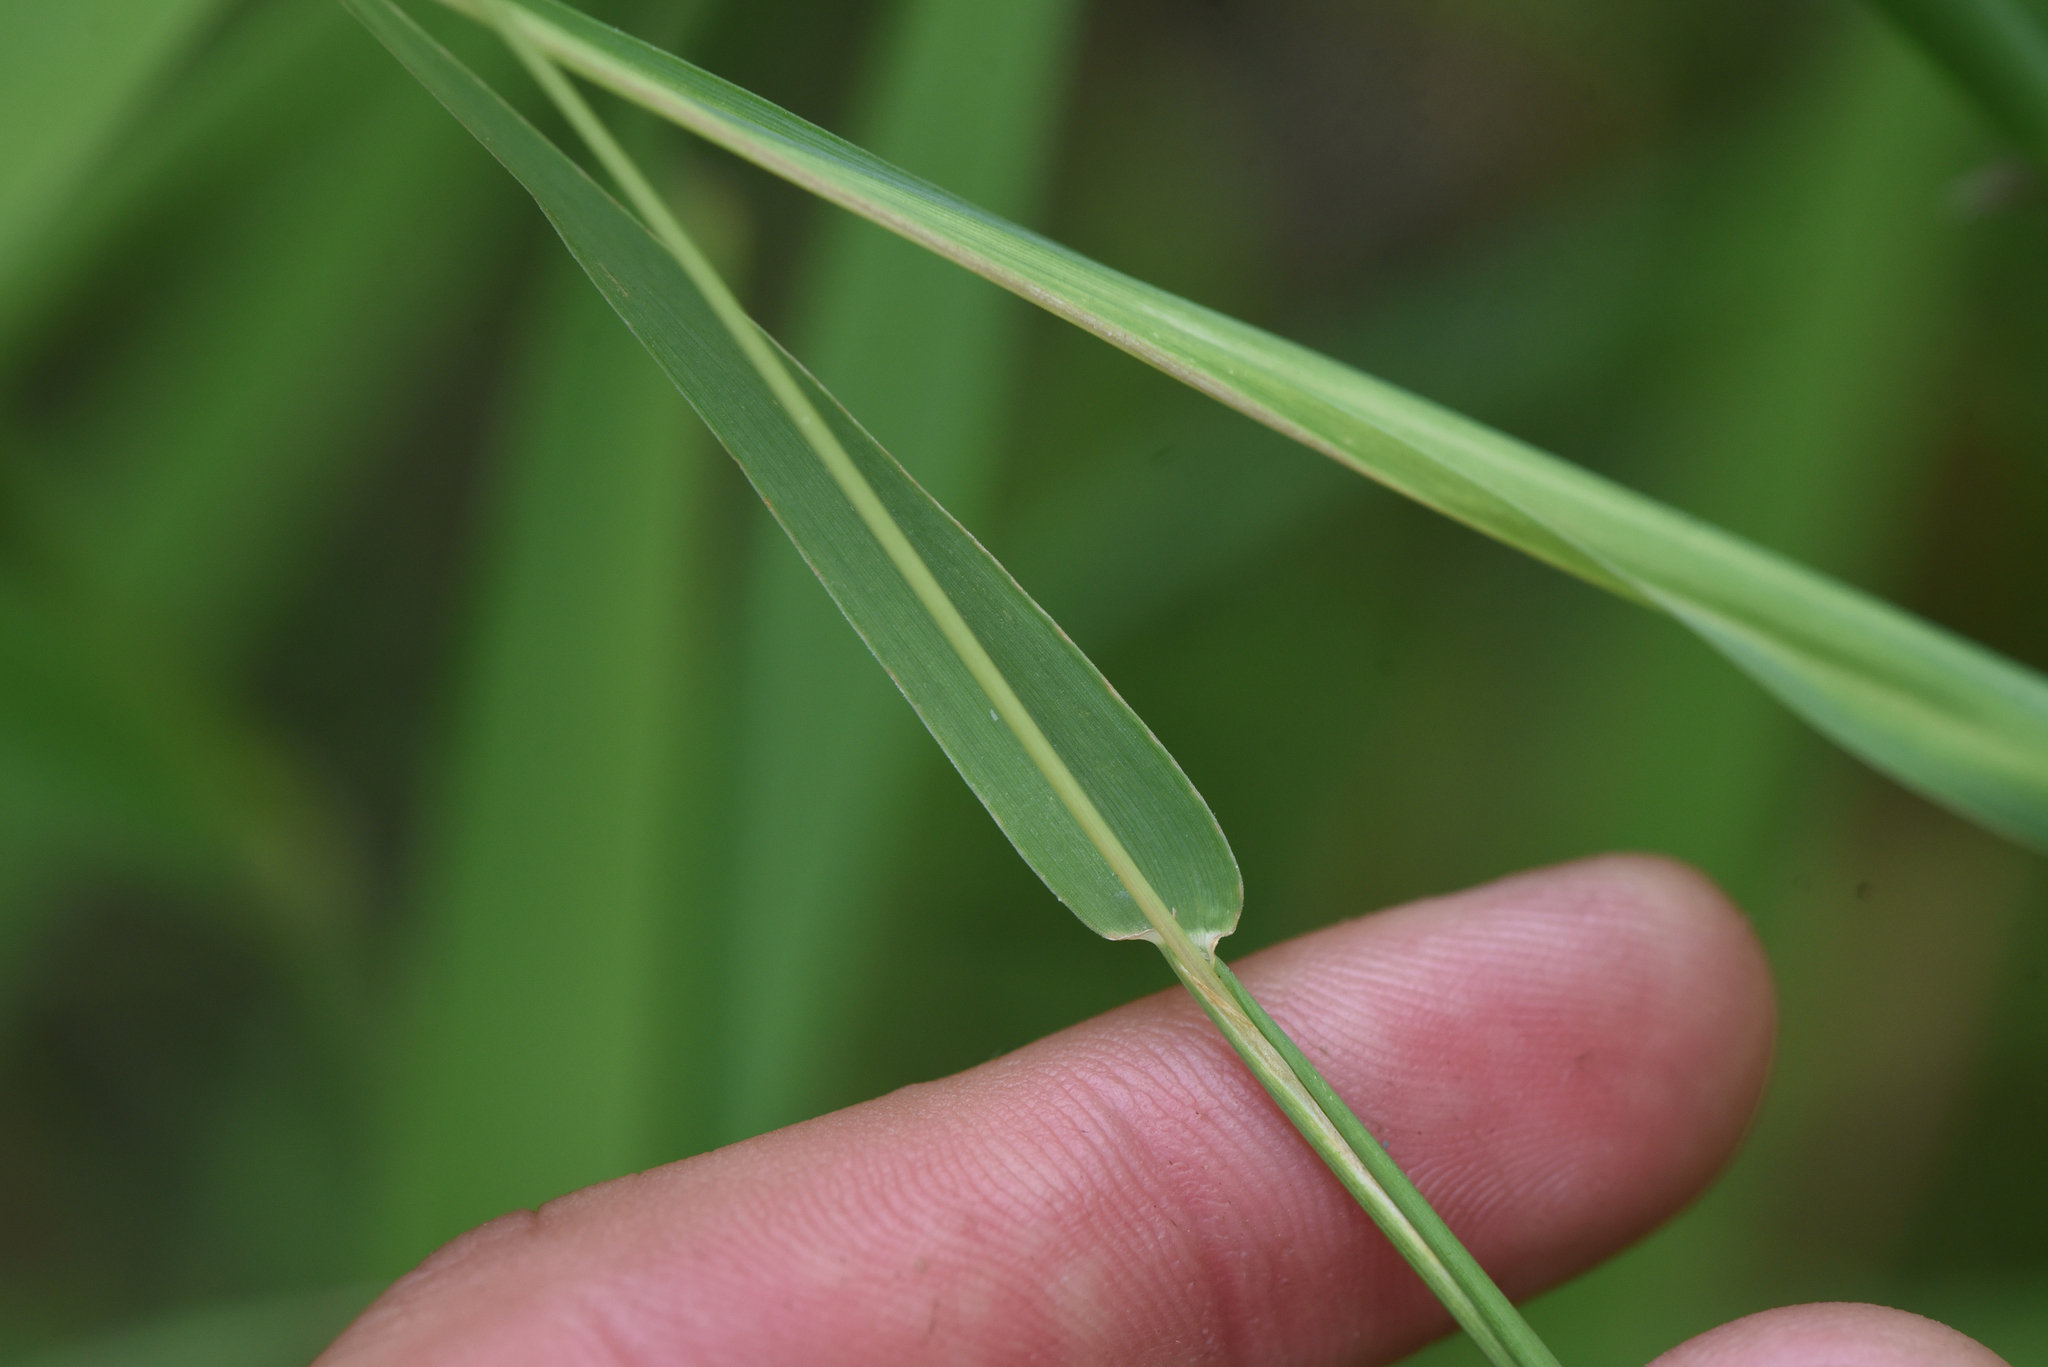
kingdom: Plantae
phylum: Tracheophyta
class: Liliopsida
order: Poales
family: Poaceae
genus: Phleum
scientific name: Phleum pratense
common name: Timothy grass
